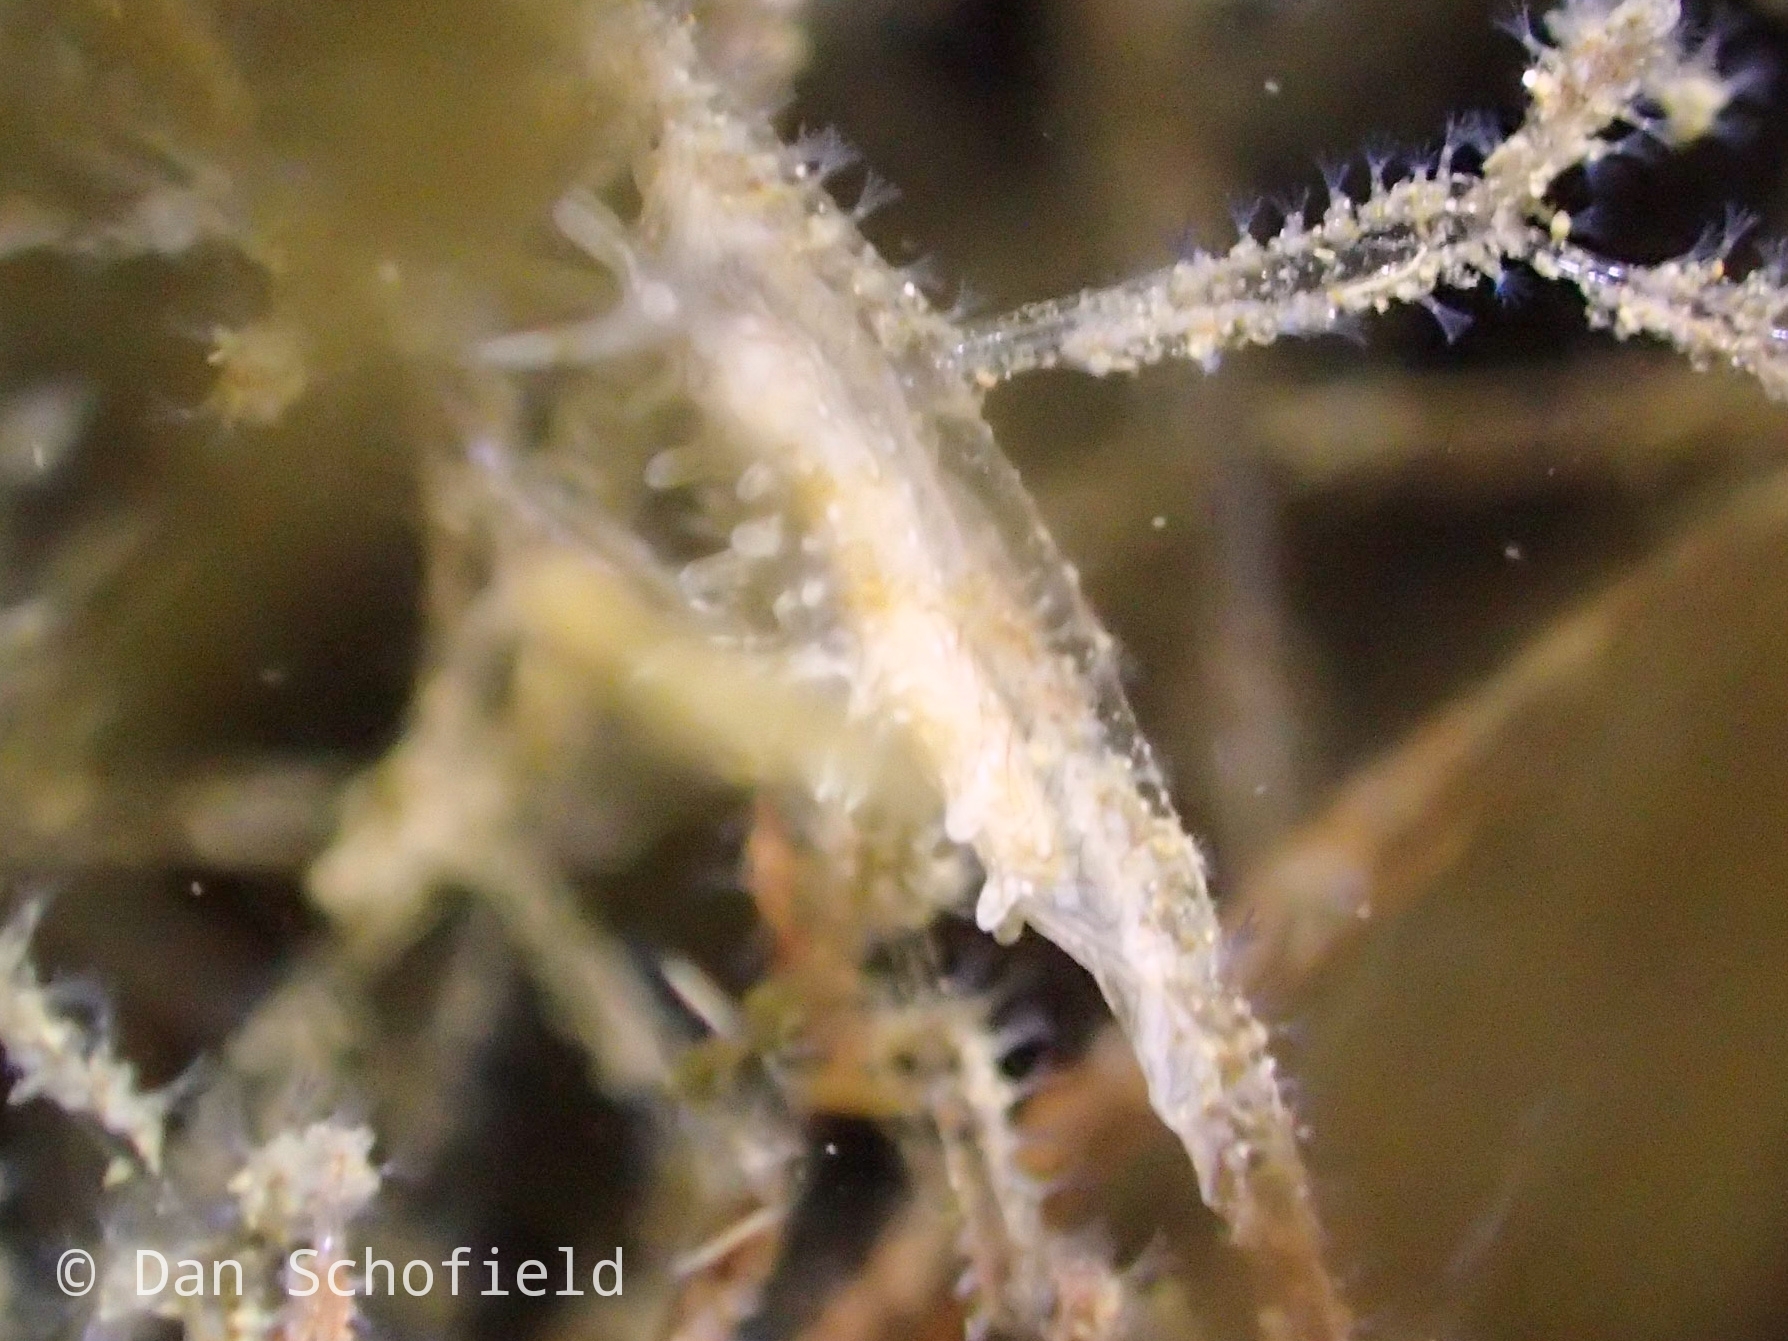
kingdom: Animalia
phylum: Mollusca
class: Gastropoda
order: Nudibranchia
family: Goniodorididae
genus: Okenia
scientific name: Okenia
